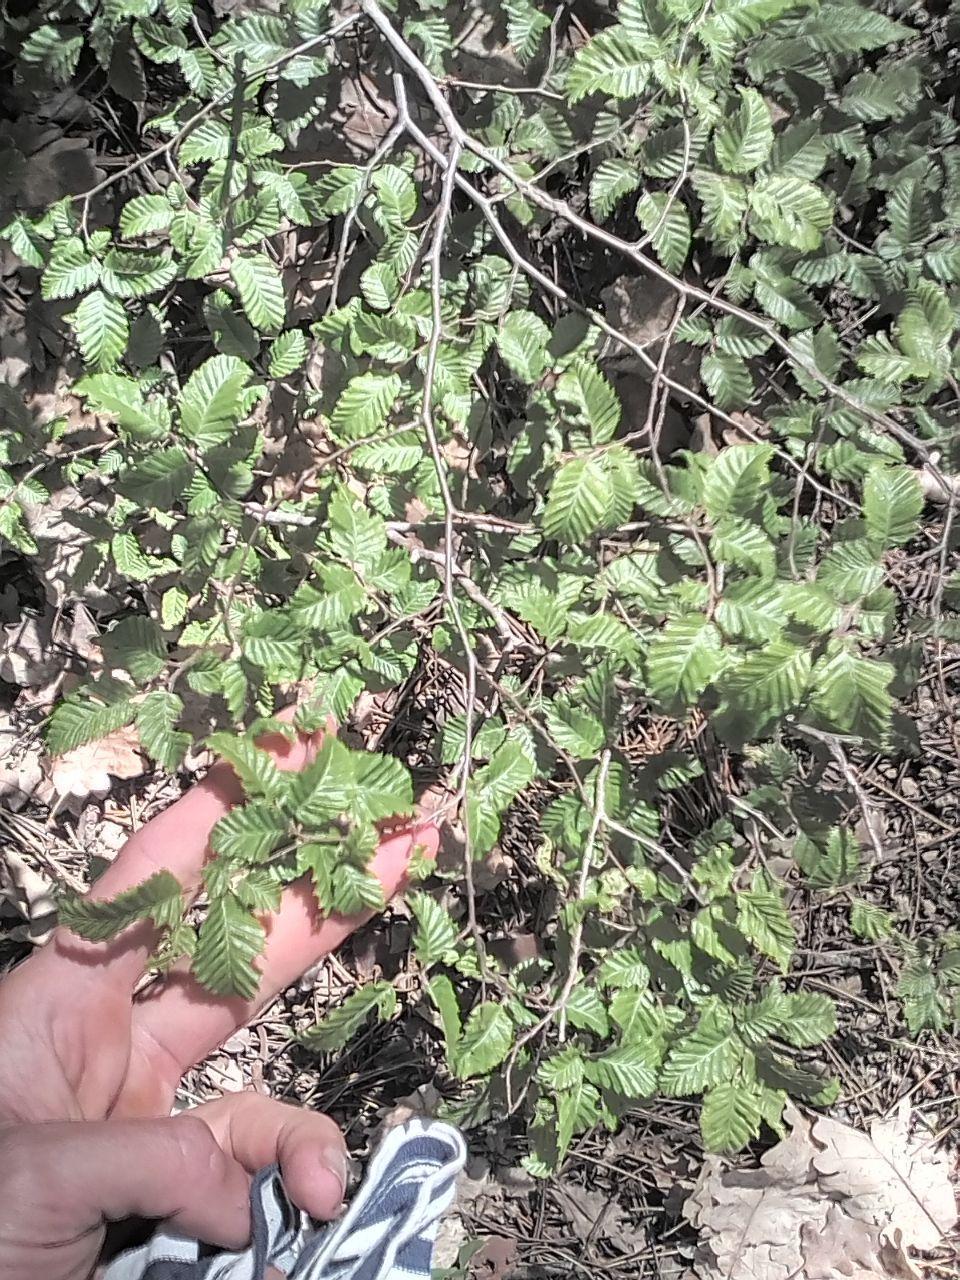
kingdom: Plantae
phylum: Tracheophyta
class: Magnoliopsida
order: Fagales
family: Betulaceae
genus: Carpinus
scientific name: Carpinus orientalis
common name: Eastern hornbeam
